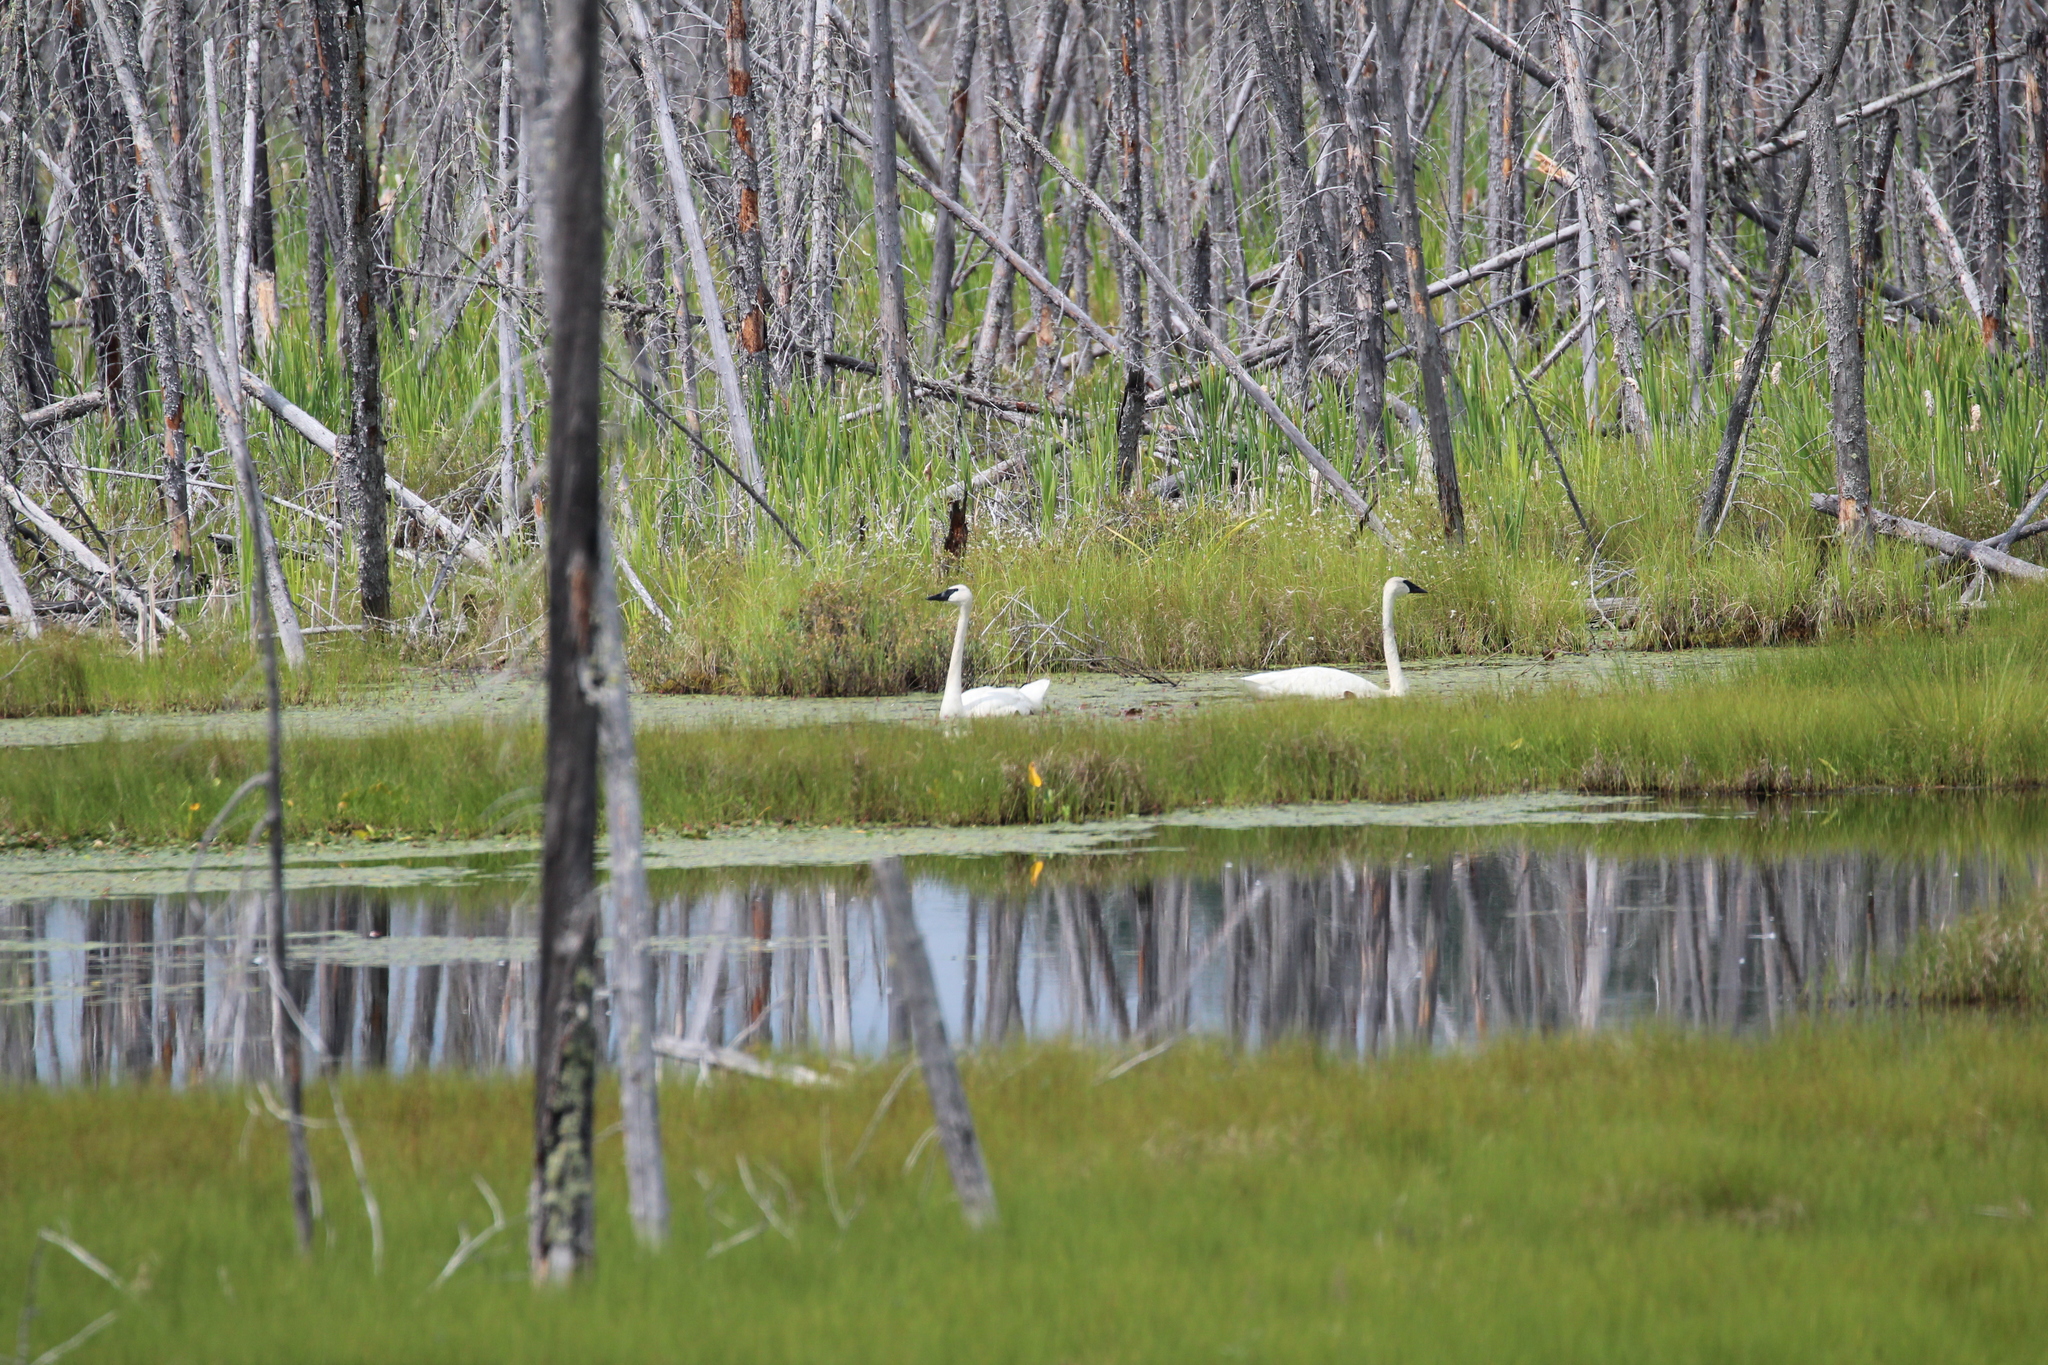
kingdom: Animalia
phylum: Chordata
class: Aves
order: Anseriformes
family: Anatidae
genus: Cygnus
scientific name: Cygnus buccinator
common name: Trumpeter swan
